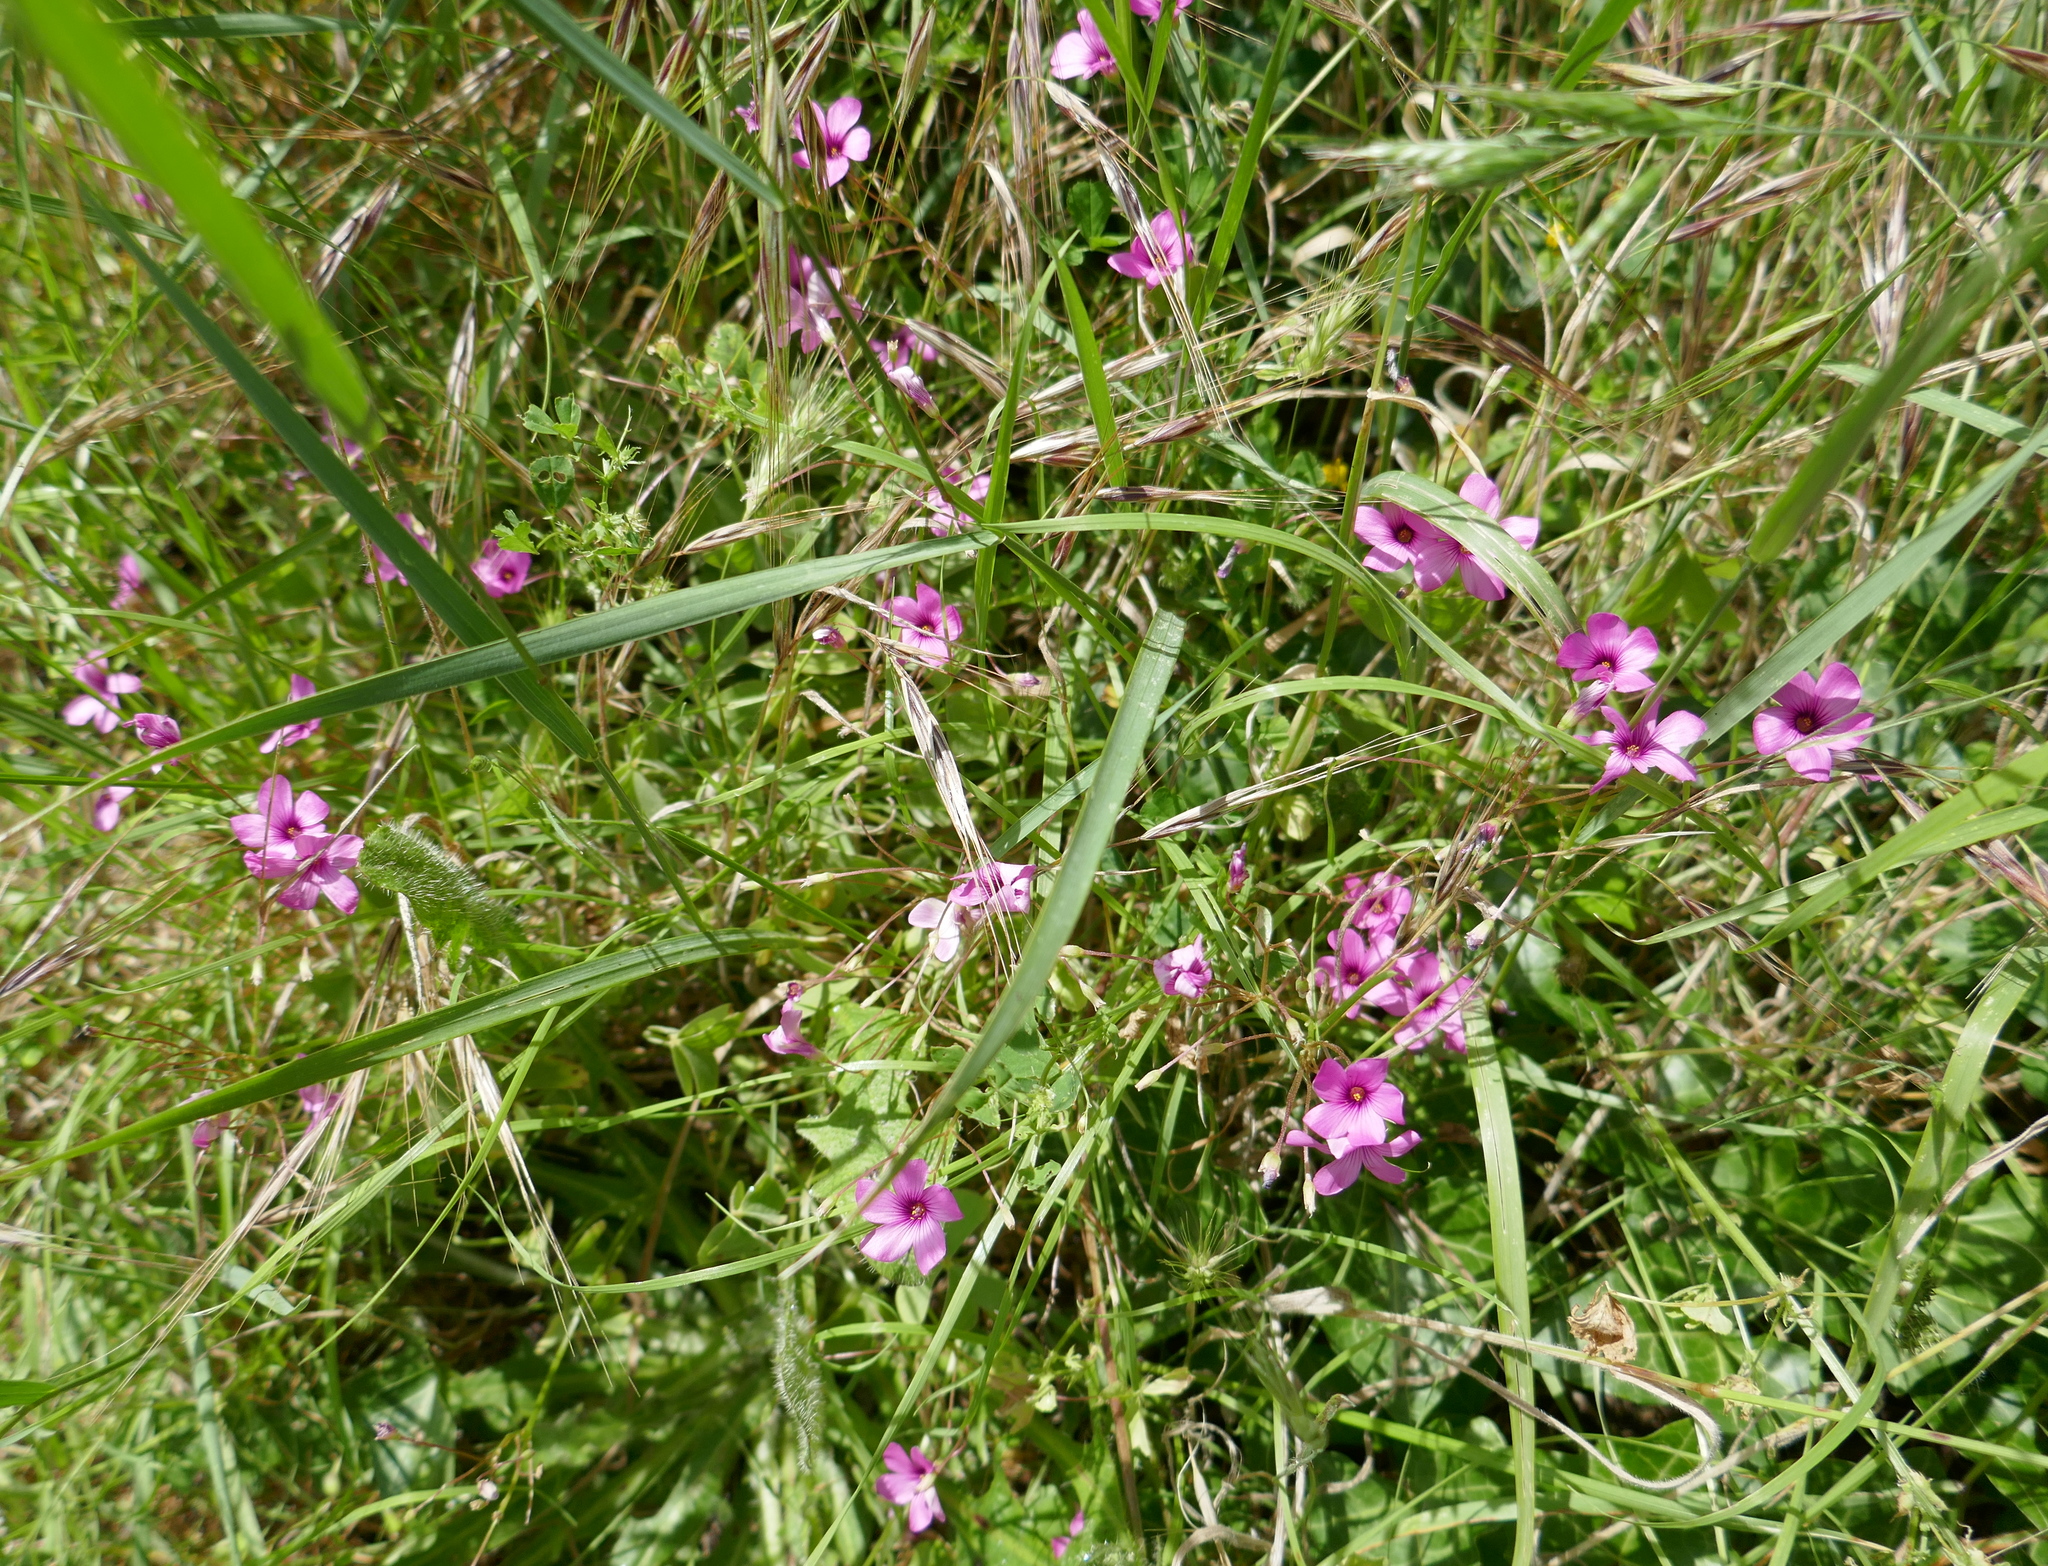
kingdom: Plantae
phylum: Tracheophyta
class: Magnoliopsida
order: Oxalidales
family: Oxalidaceae
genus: Oxalis
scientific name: Oxalis articulata
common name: Pink-sorrel
